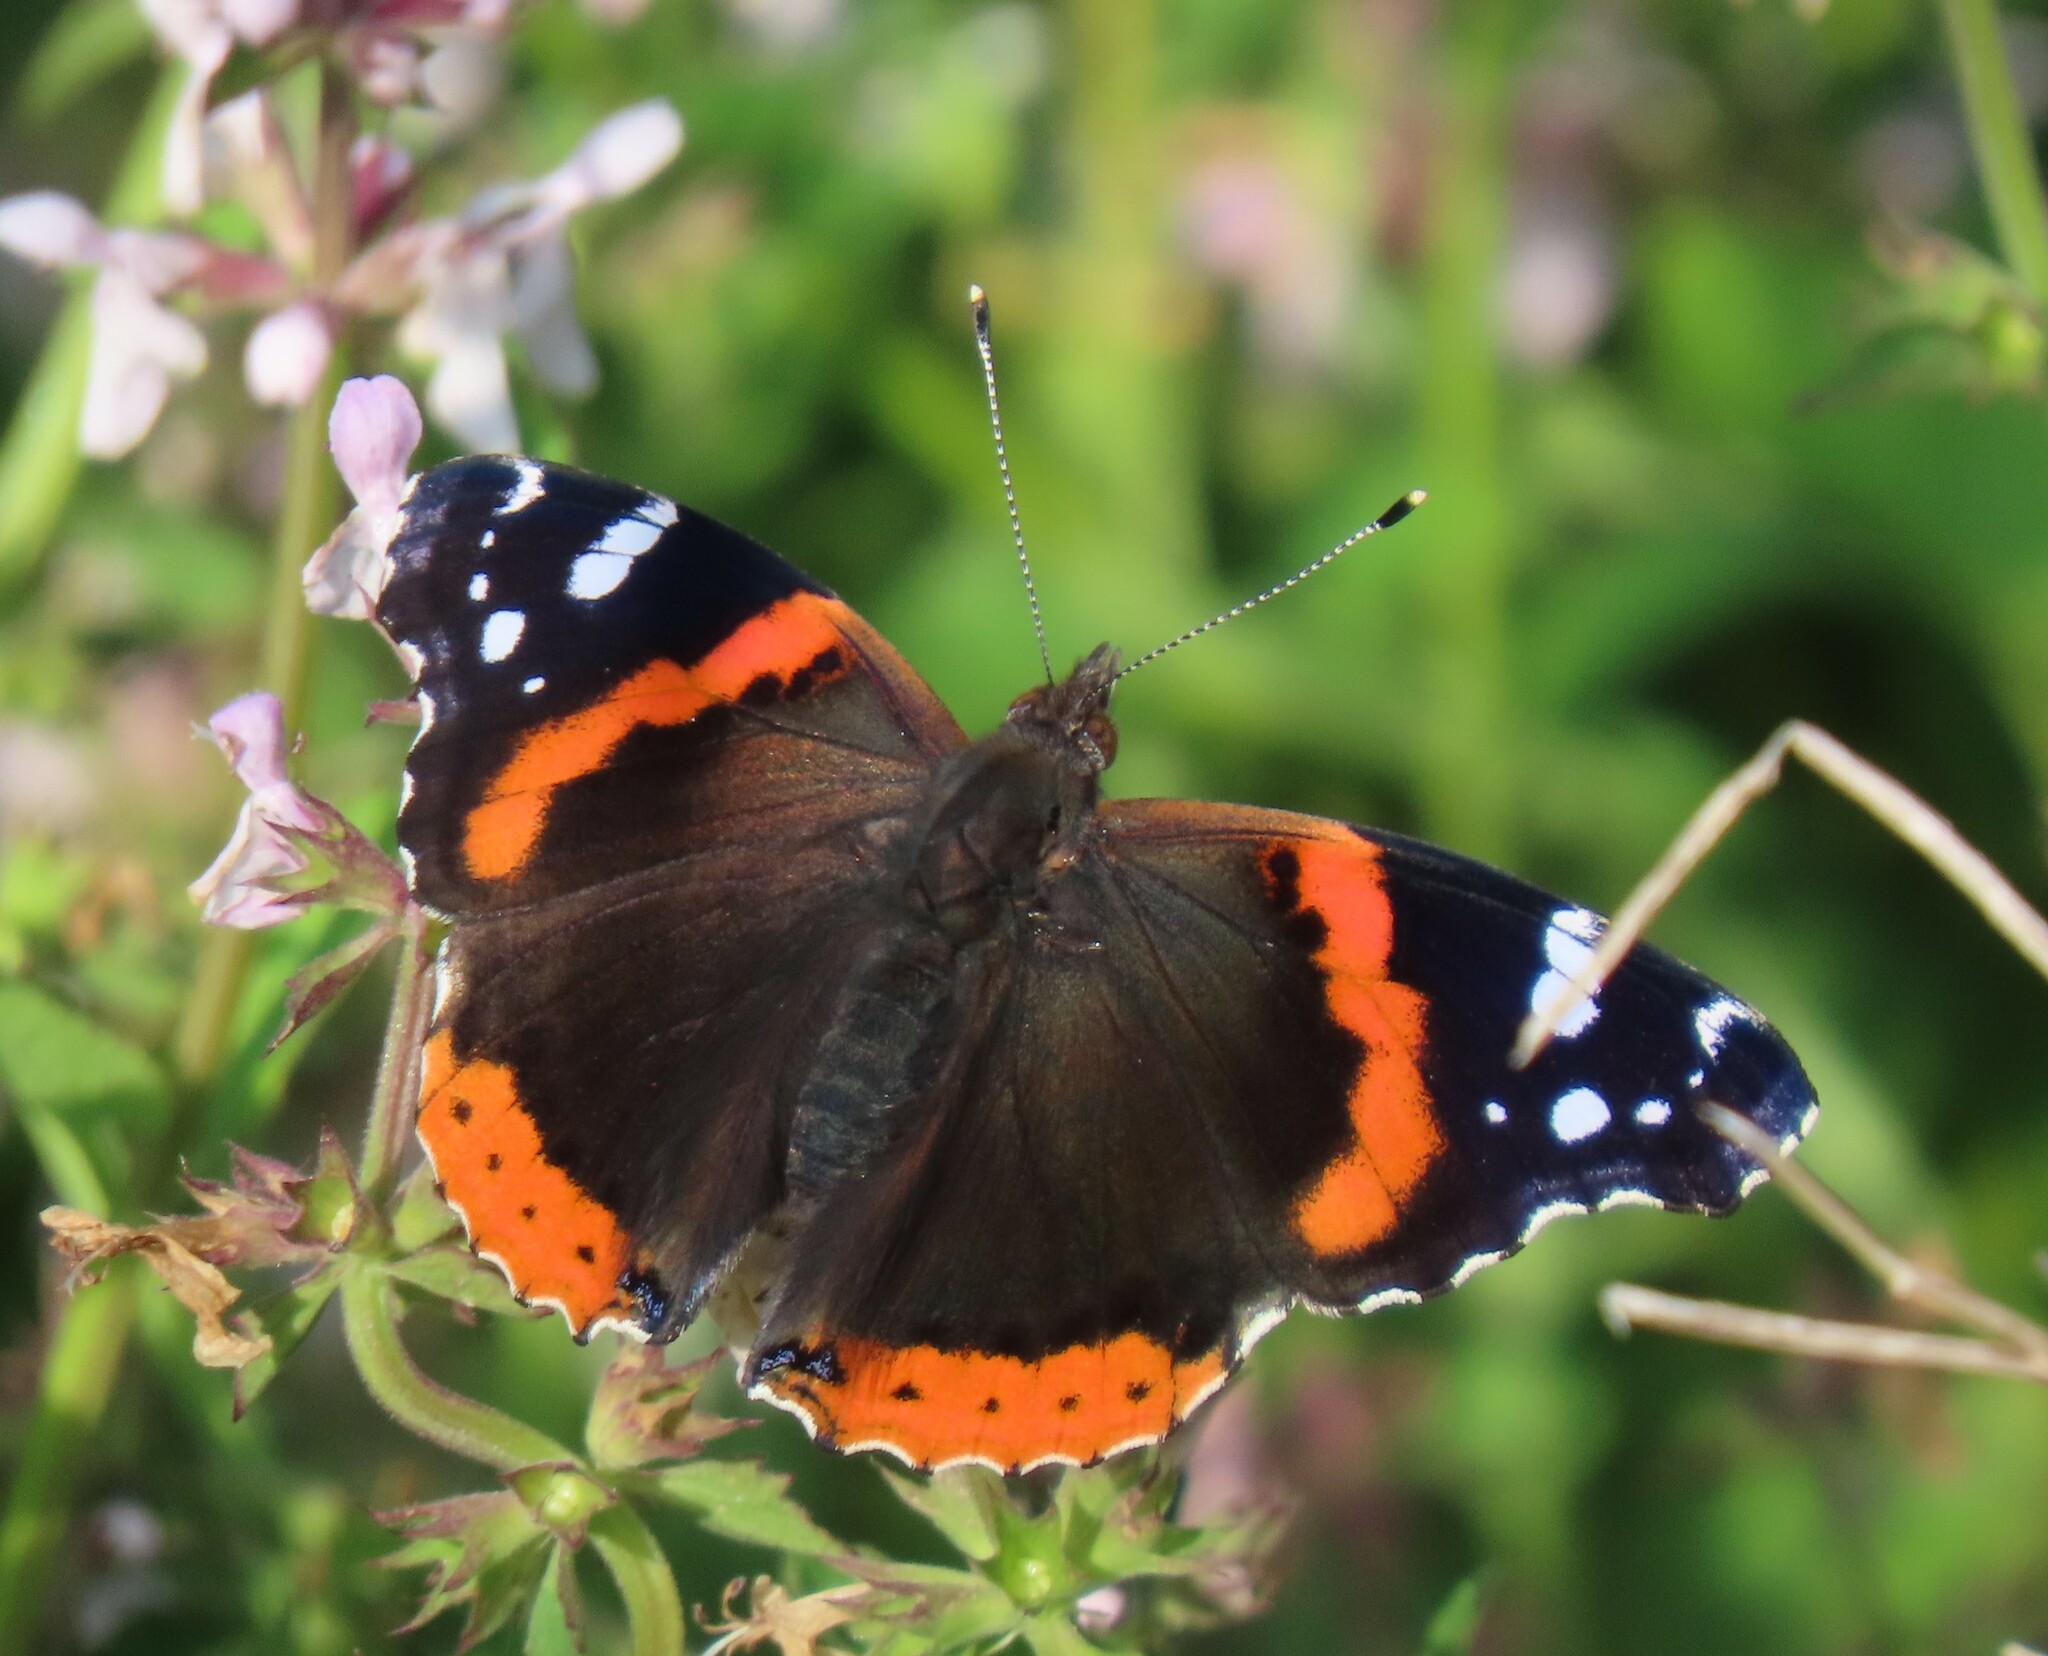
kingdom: Animalia
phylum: Arthropoda
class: Insecta
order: Lepidoptera
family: Nymphalidae
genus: Vanessa
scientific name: Vanessa atalanta
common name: Red admiral
